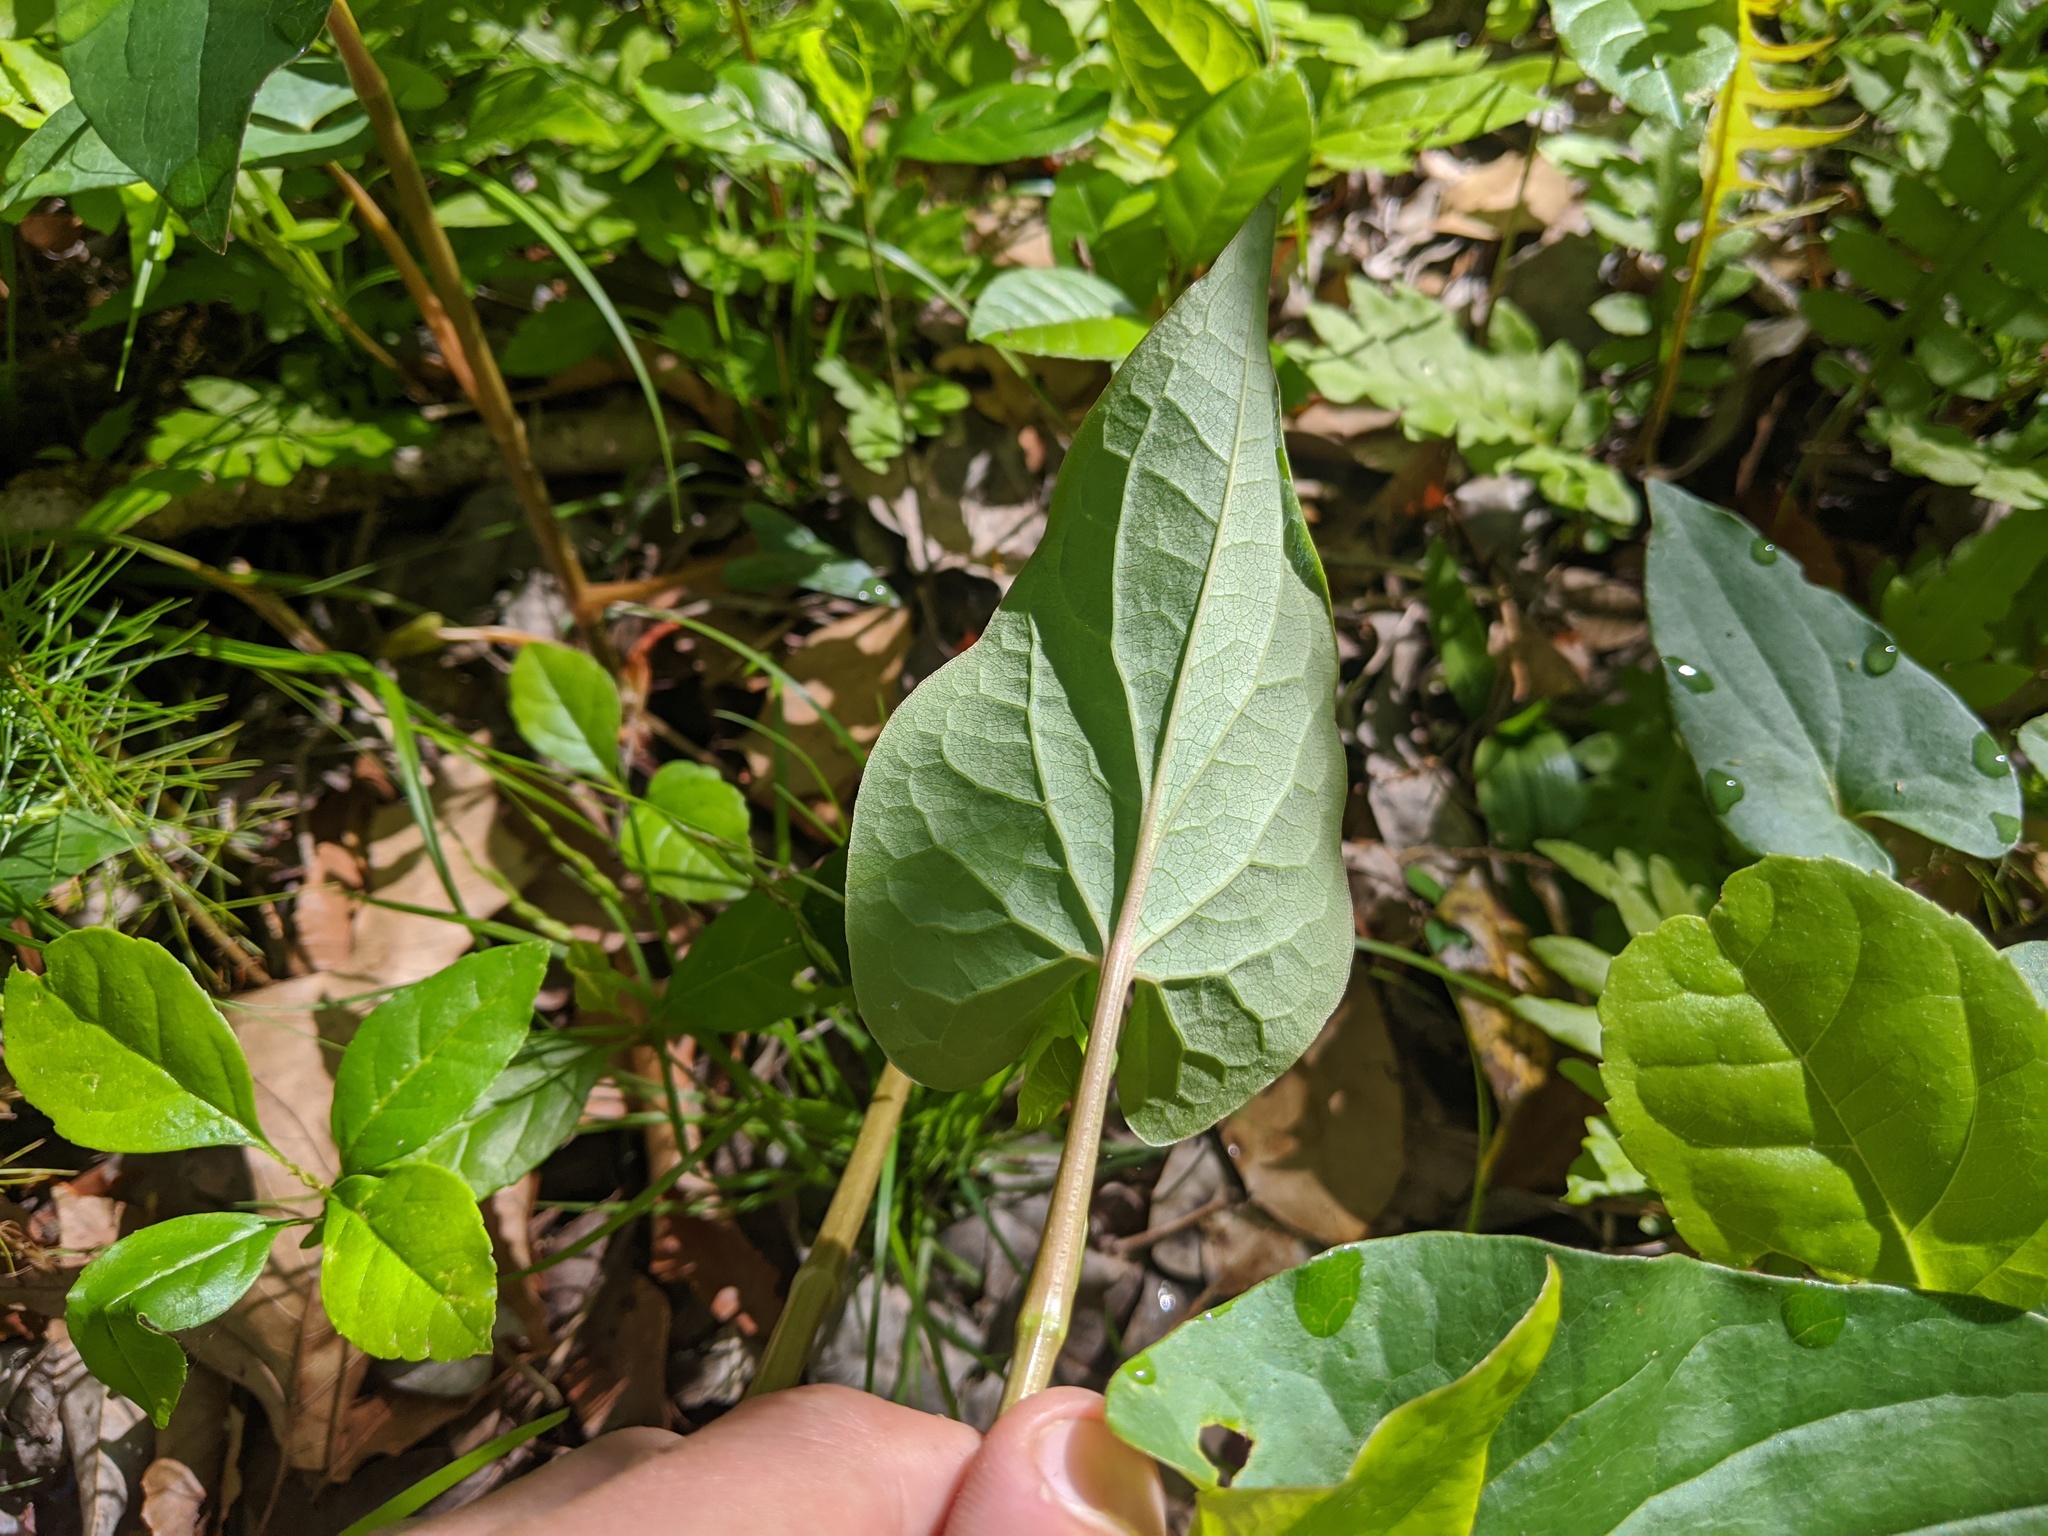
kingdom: Plantae
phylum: Tracheophyta
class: Magnoliopsida
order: Piperales
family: Saururaceae
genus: Saururus
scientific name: Saururus cernuus
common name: Lizard's-tail
